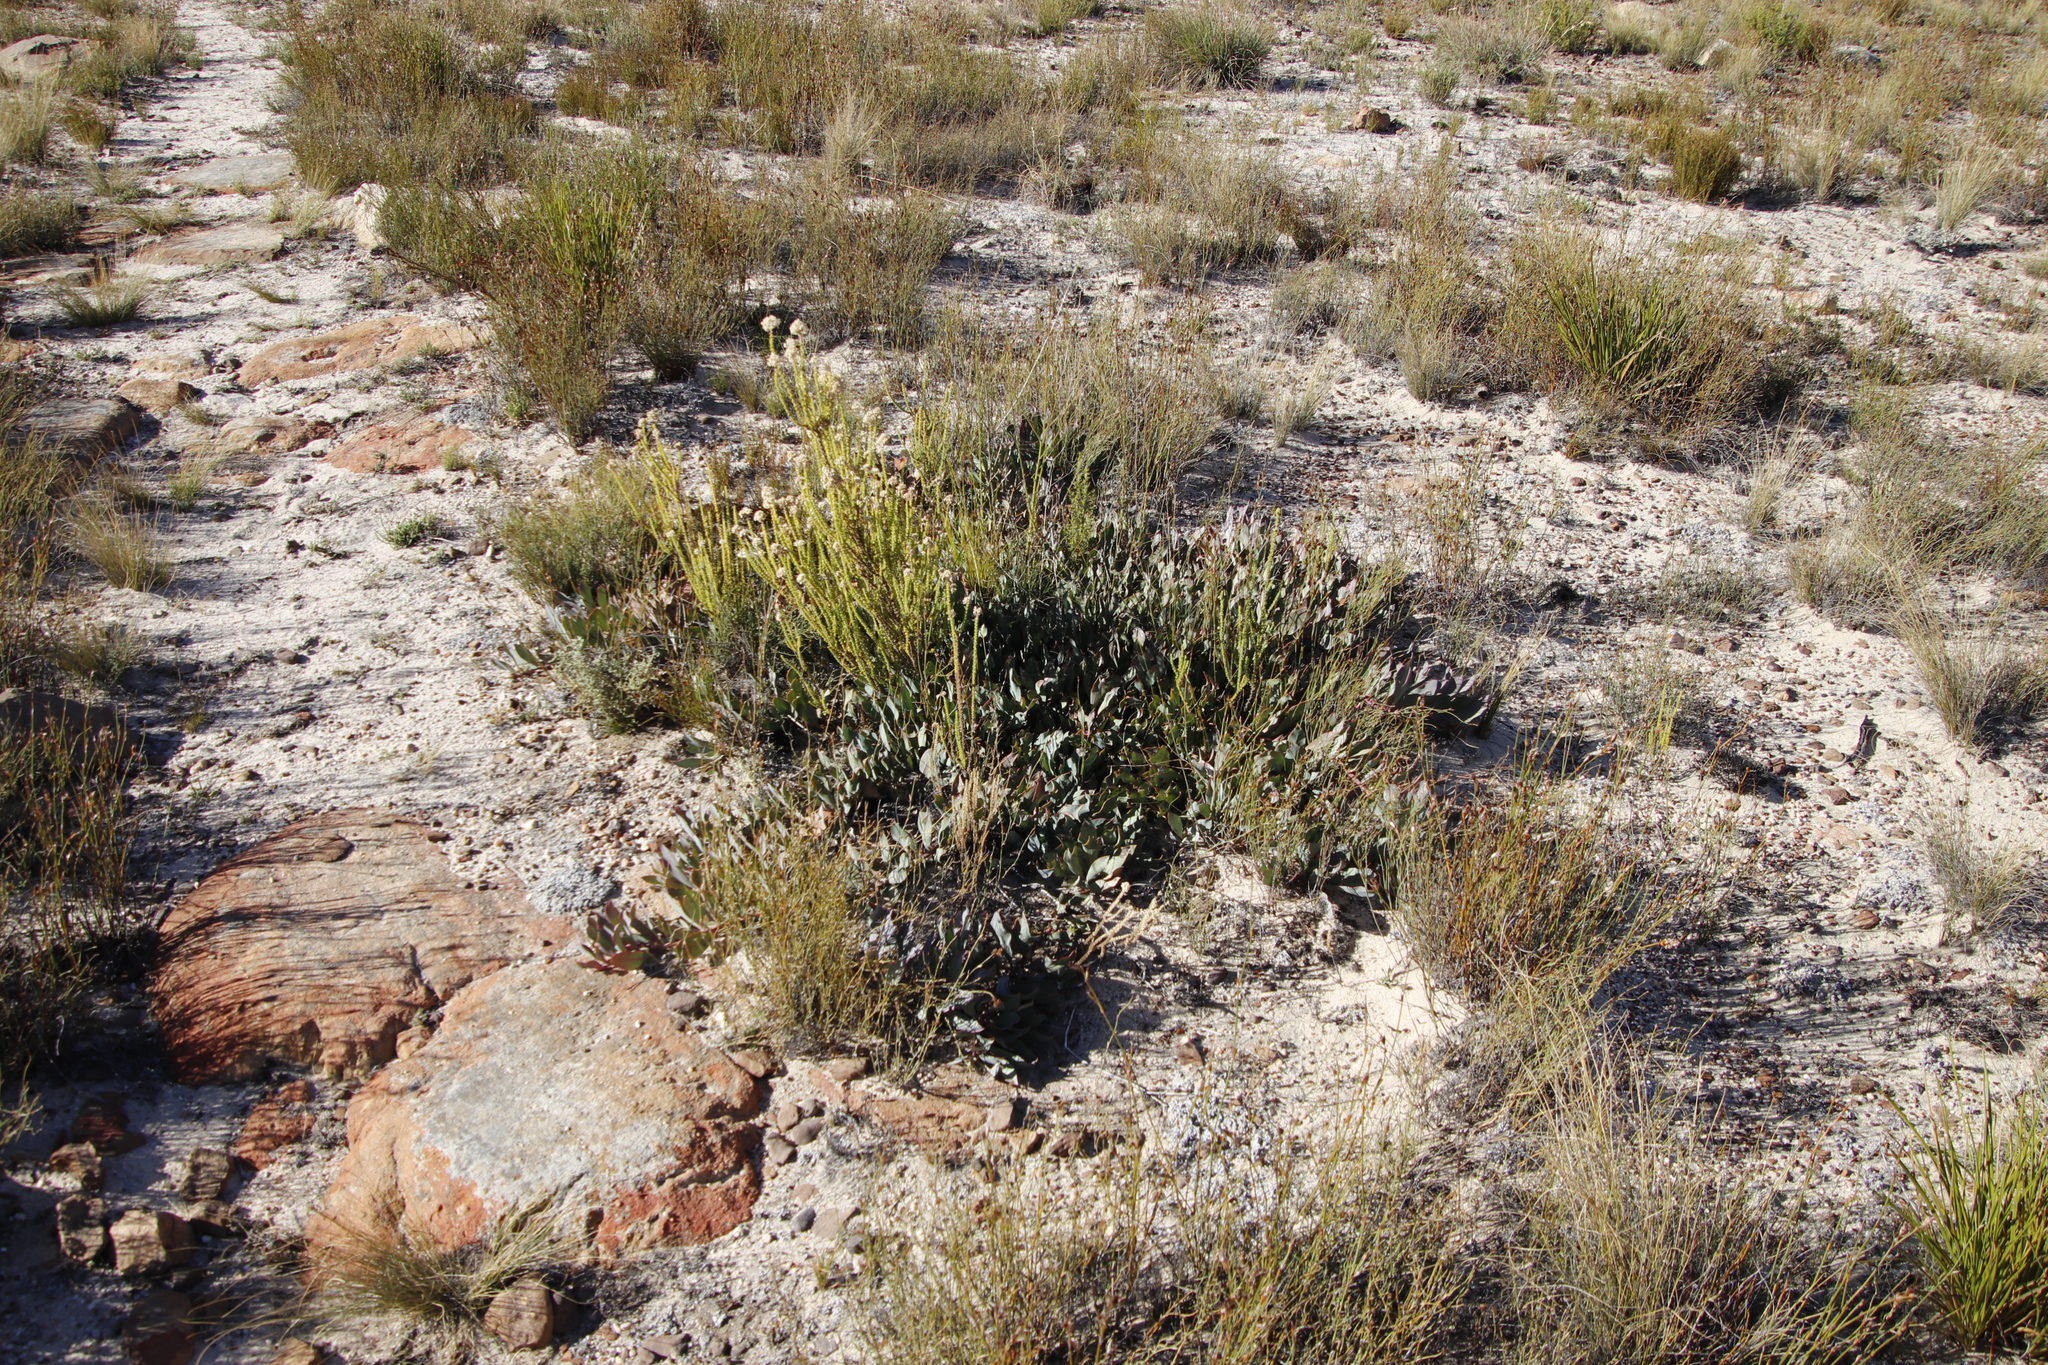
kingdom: Plantae
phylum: Tracheophyta
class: Magnoliopsida
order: Proteales
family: Proteaceae
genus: Protea
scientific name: Protea laevis
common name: Smooth-leaf sugarbush
